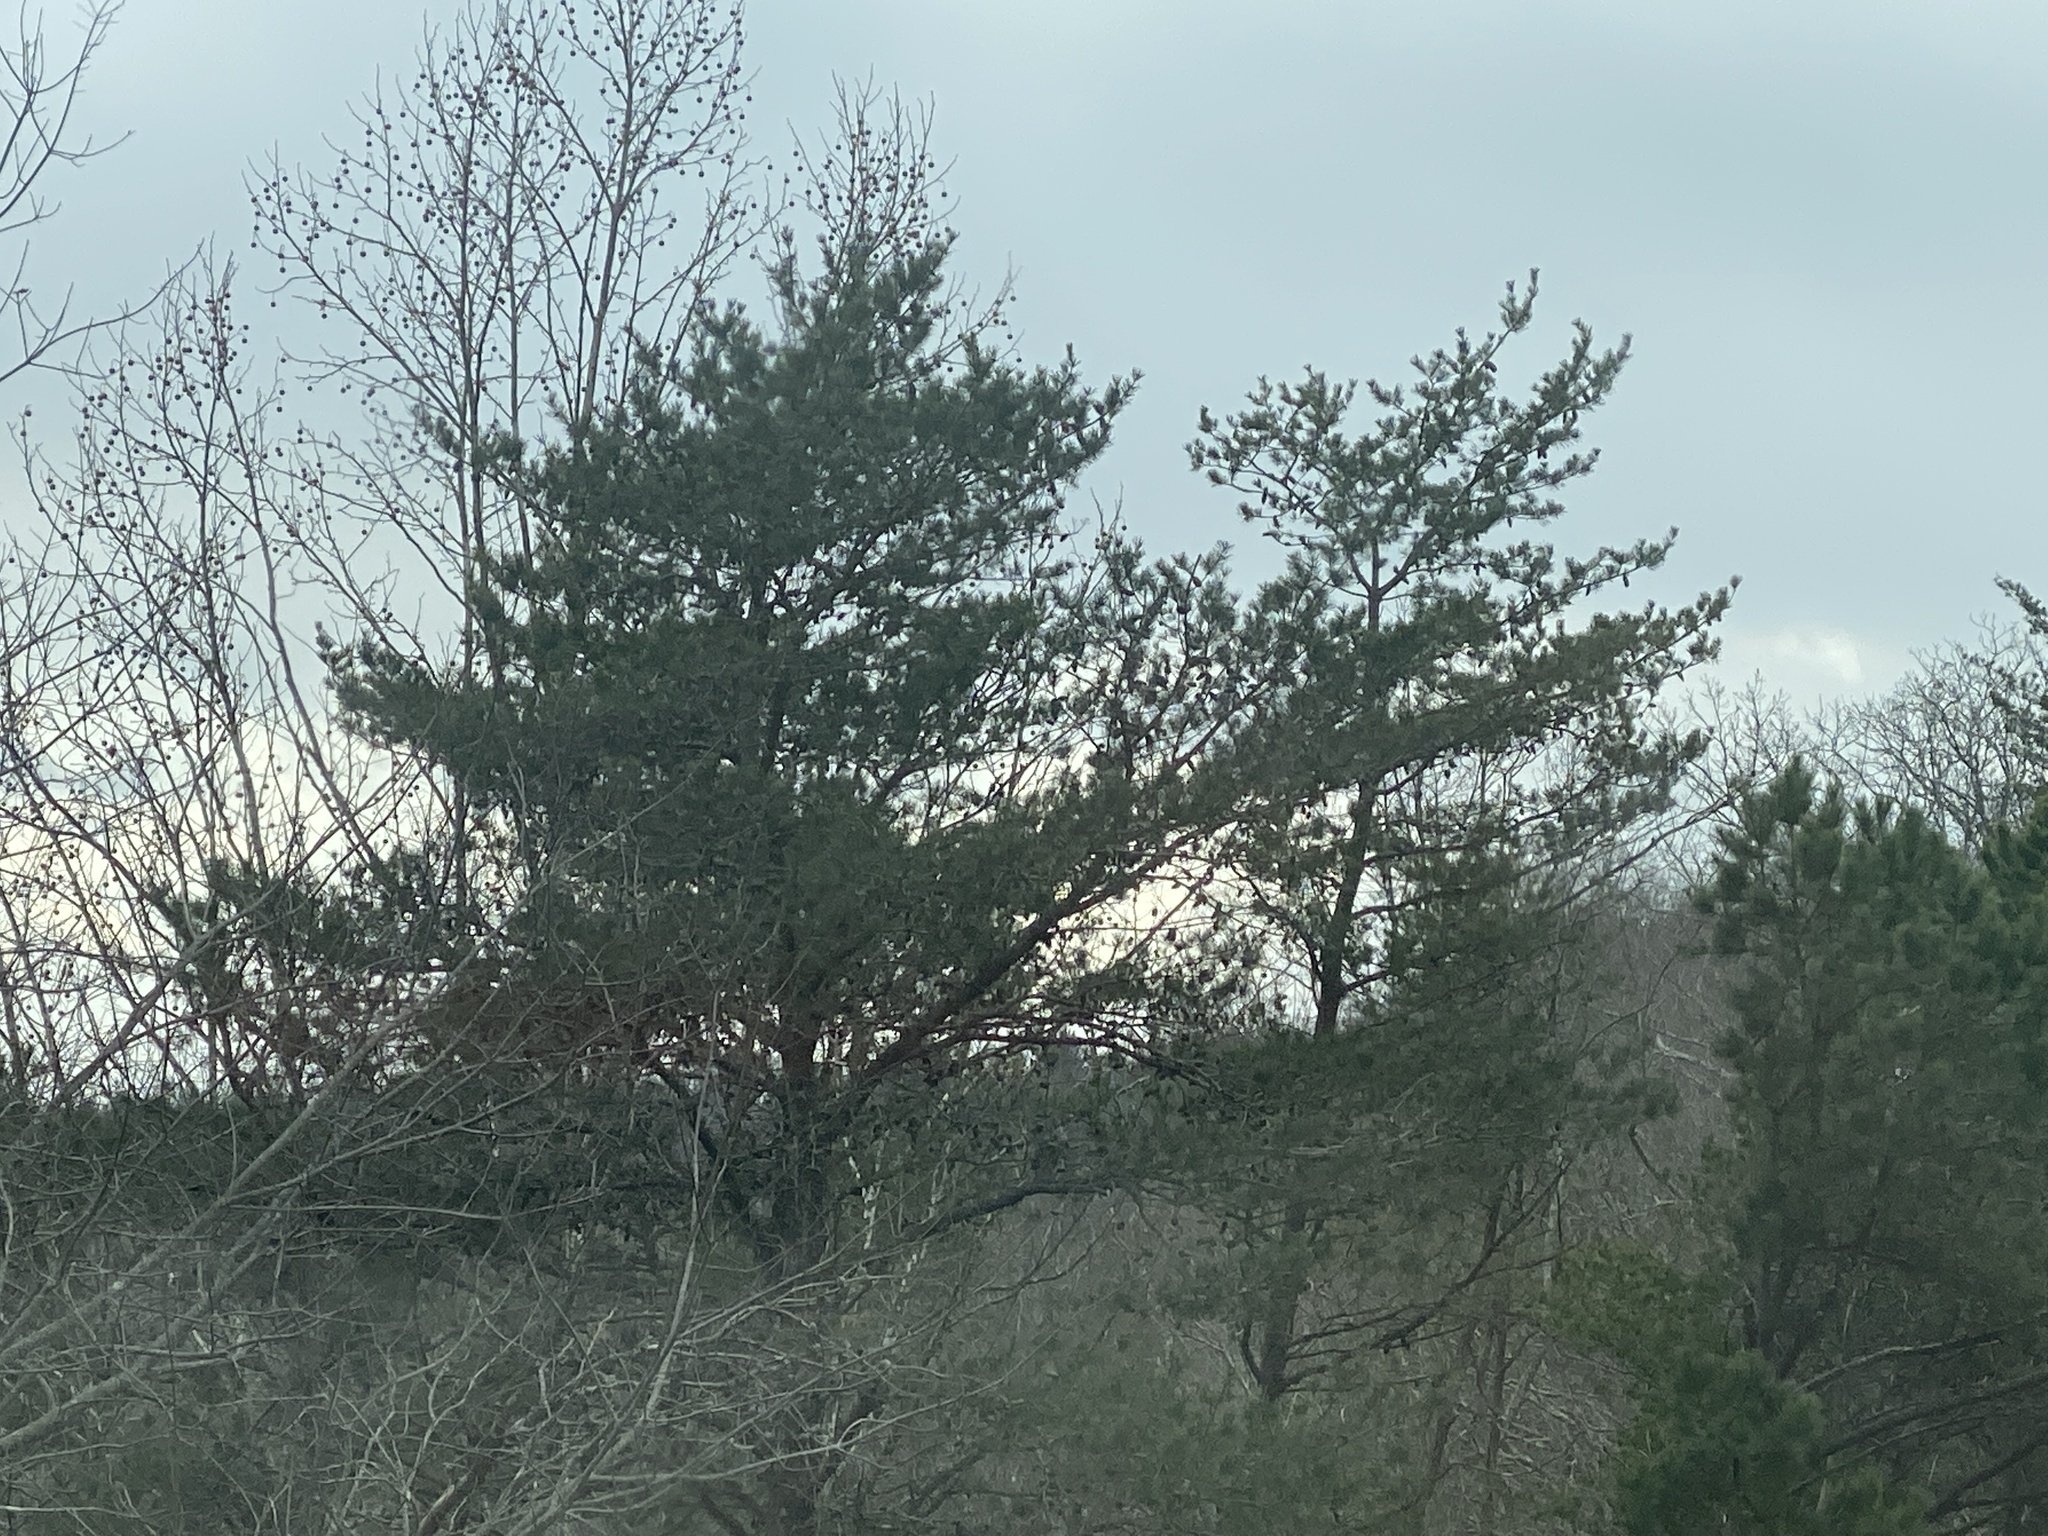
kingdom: Plantae
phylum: Tracheophyta
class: Pinopsida
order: Pinales
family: Pinaceae
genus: Pinus
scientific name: Pinus virginiana
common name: Scrub pine
